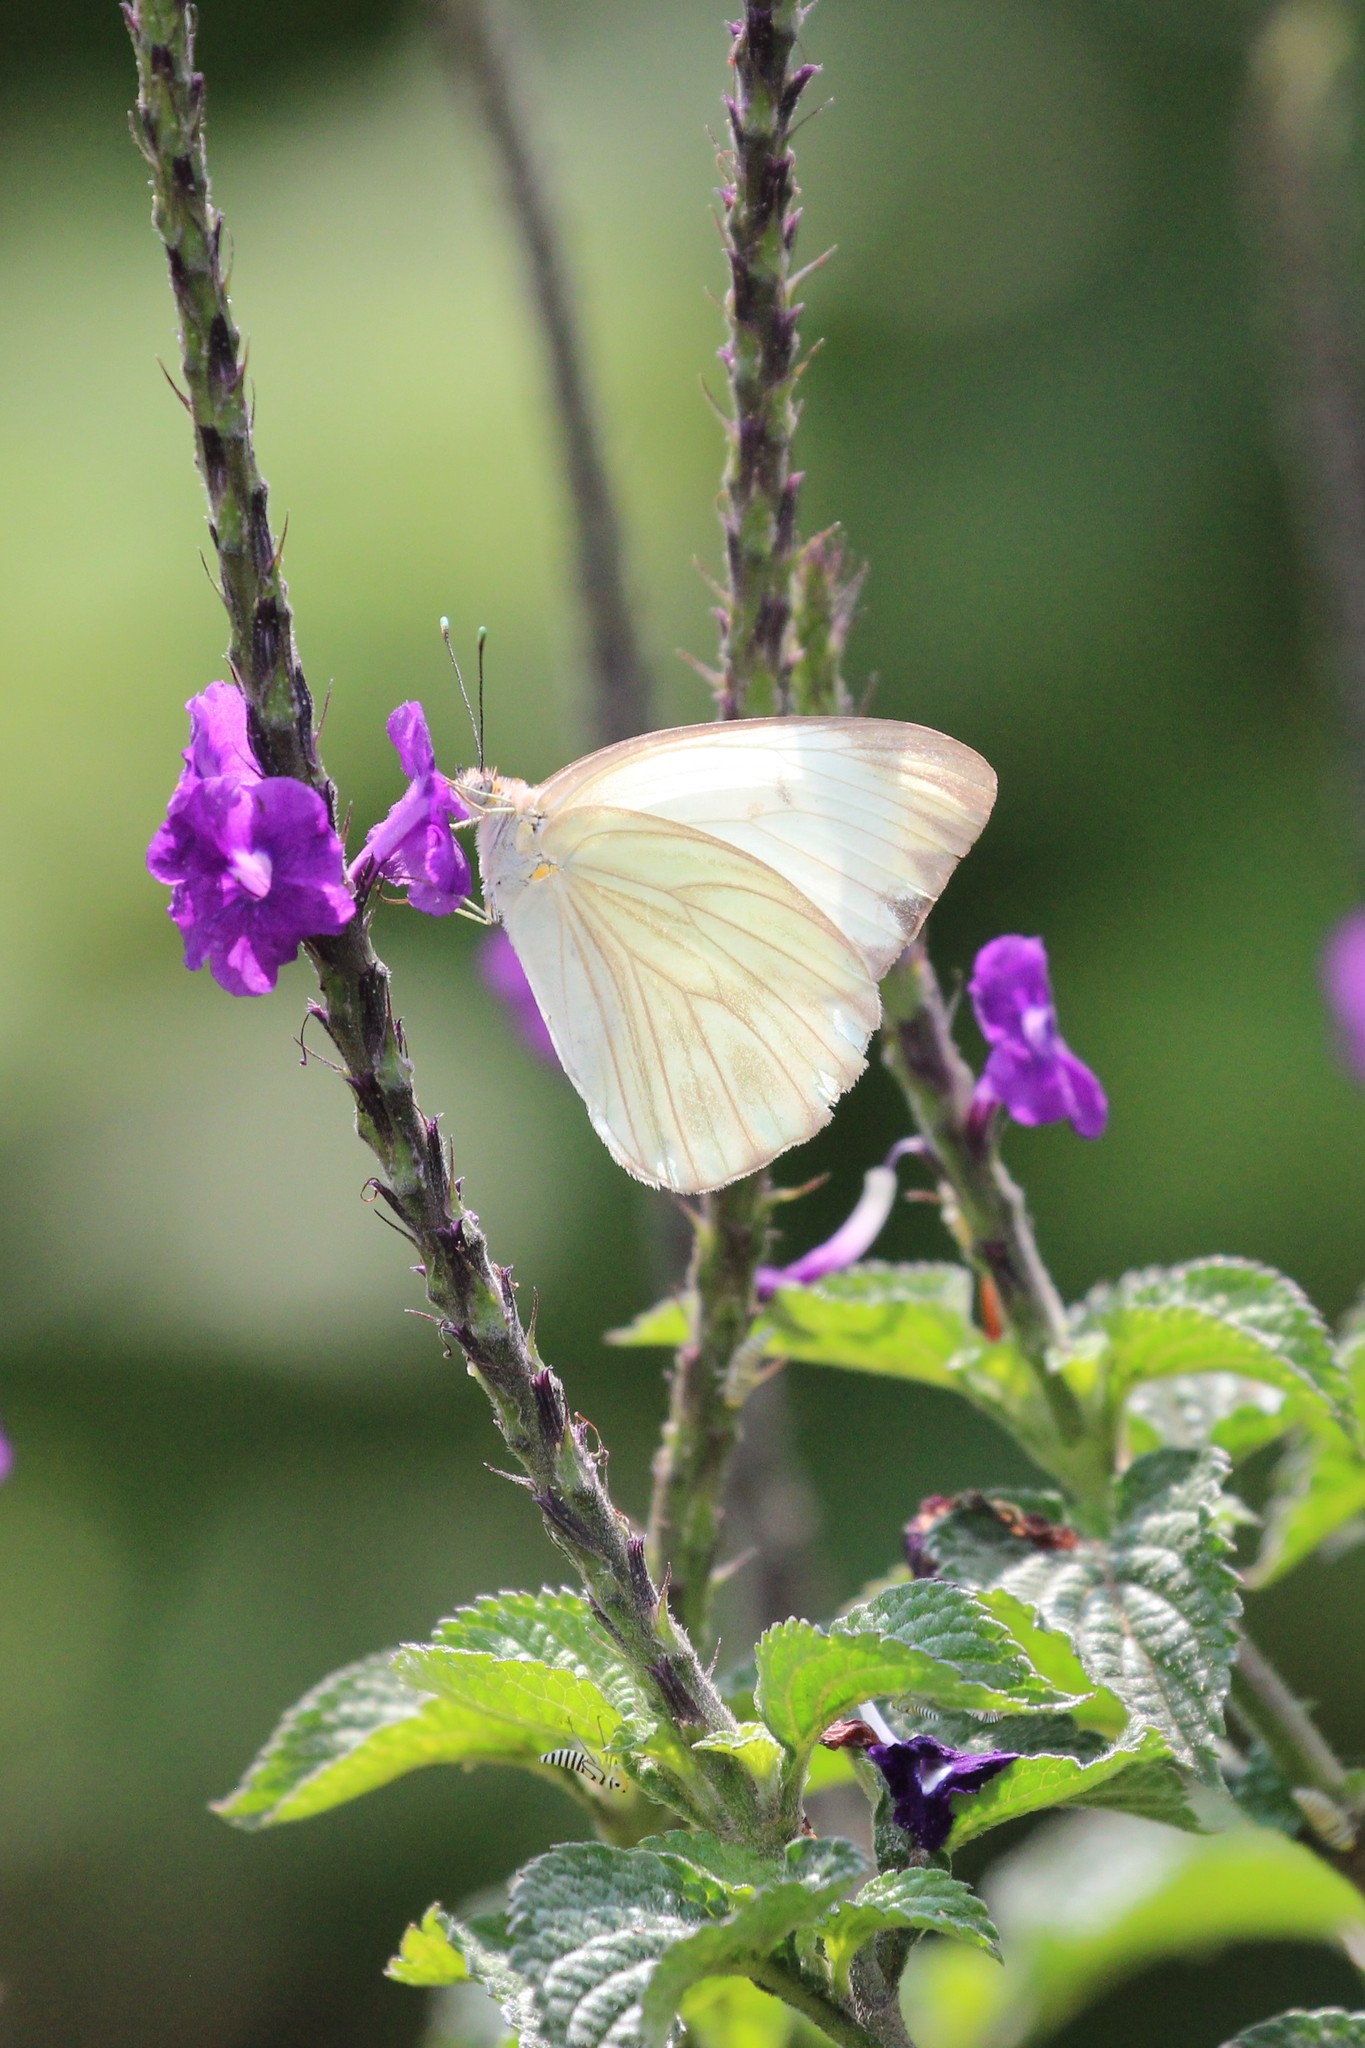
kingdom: Animalia
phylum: Arthropoda
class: Insecta
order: Lepidoptera
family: Pieridae
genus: Ascia
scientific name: Ascia monuste
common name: Great southern white
